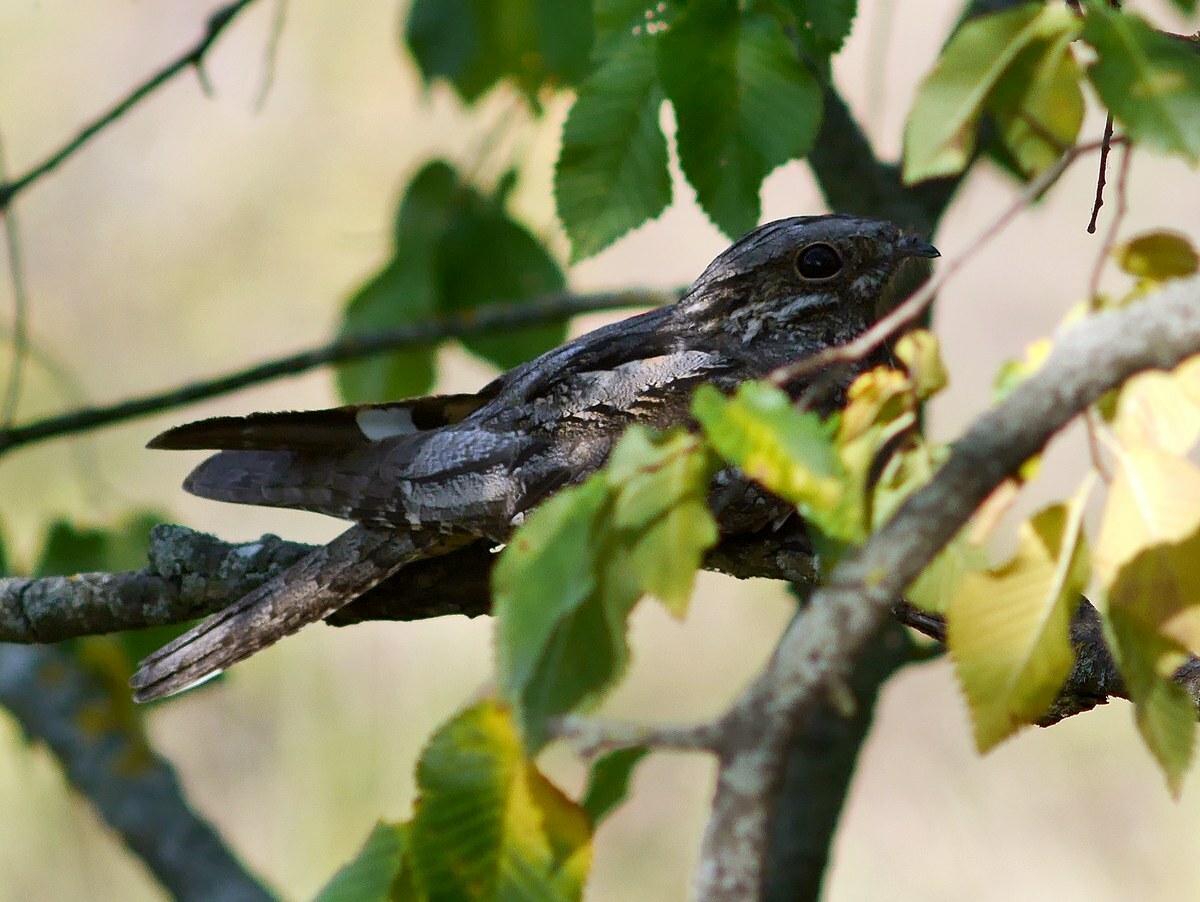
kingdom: Animalia
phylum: Chordata
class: Aves
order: Caprimulgiformes
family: Caprimulgidae
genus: Caprimulgus
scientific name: Caprimulgus europaeus
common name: European nightjar
